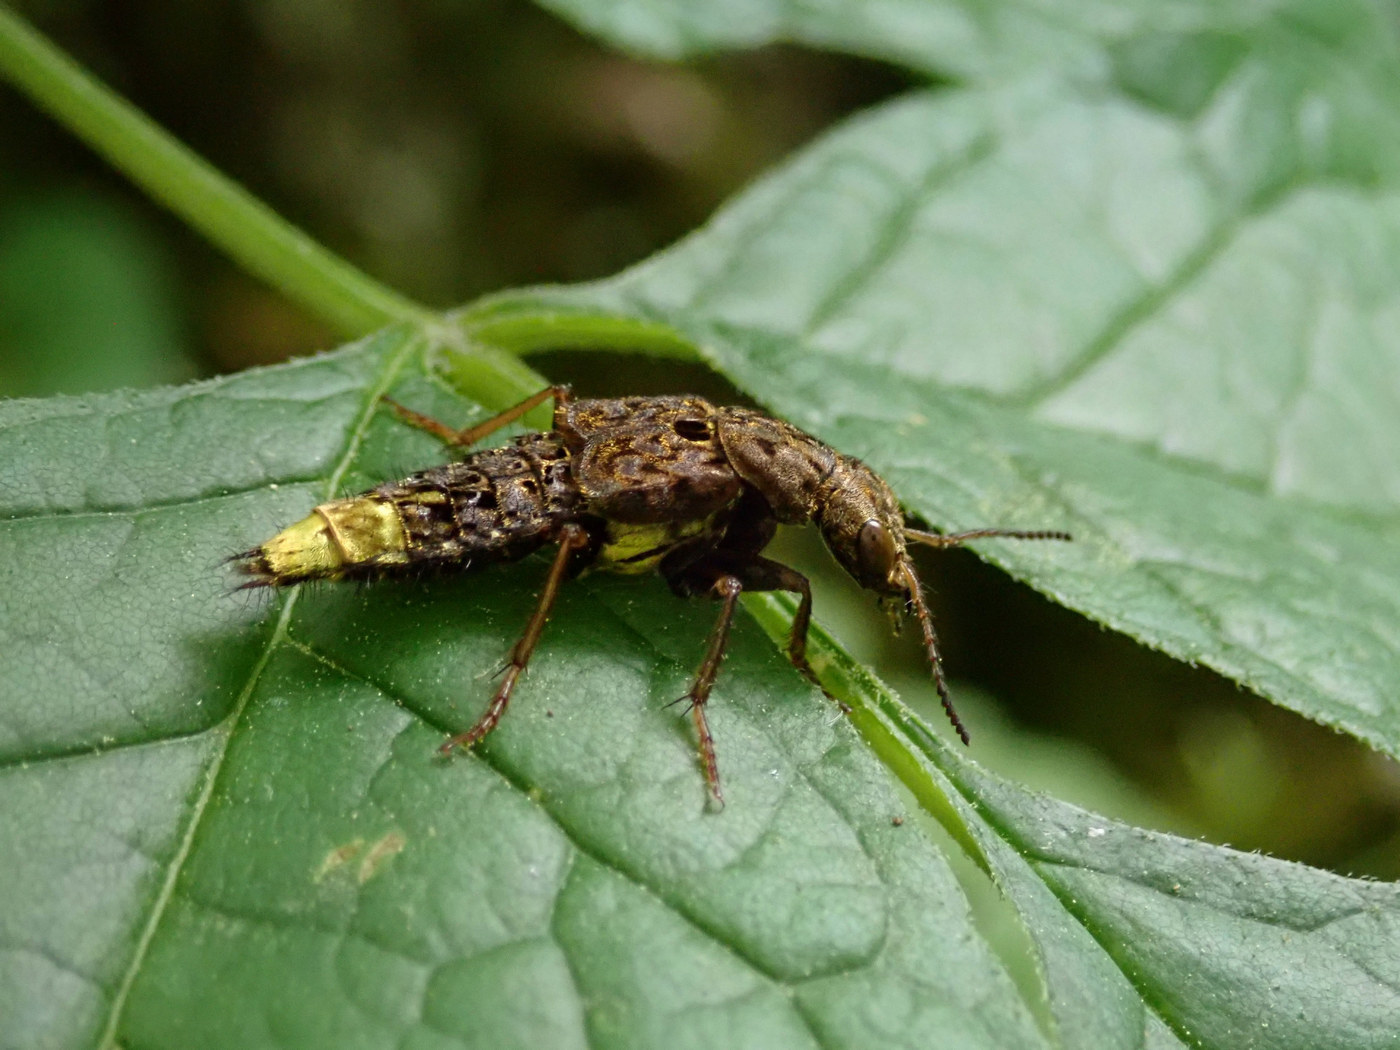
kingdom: Animalia
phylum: Arthropoda
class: Insecta
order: Coleoptera
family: Staphylinidae
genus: Ontholestes
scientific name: Ontholestes cingulatus
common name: Gold-and-brown rove beetle
